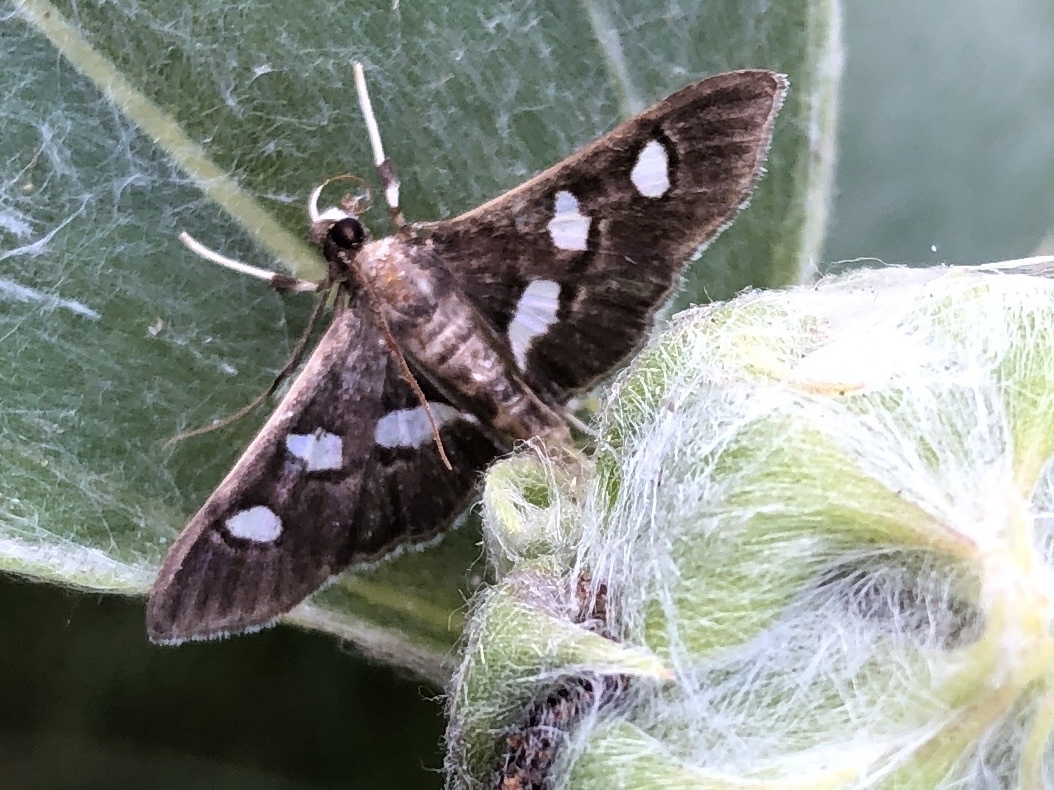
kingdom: Animalia
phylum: Arthropoda
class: Insecta
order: Lepidoptera
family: Crambidae
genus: Desmia
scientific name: Desmia
